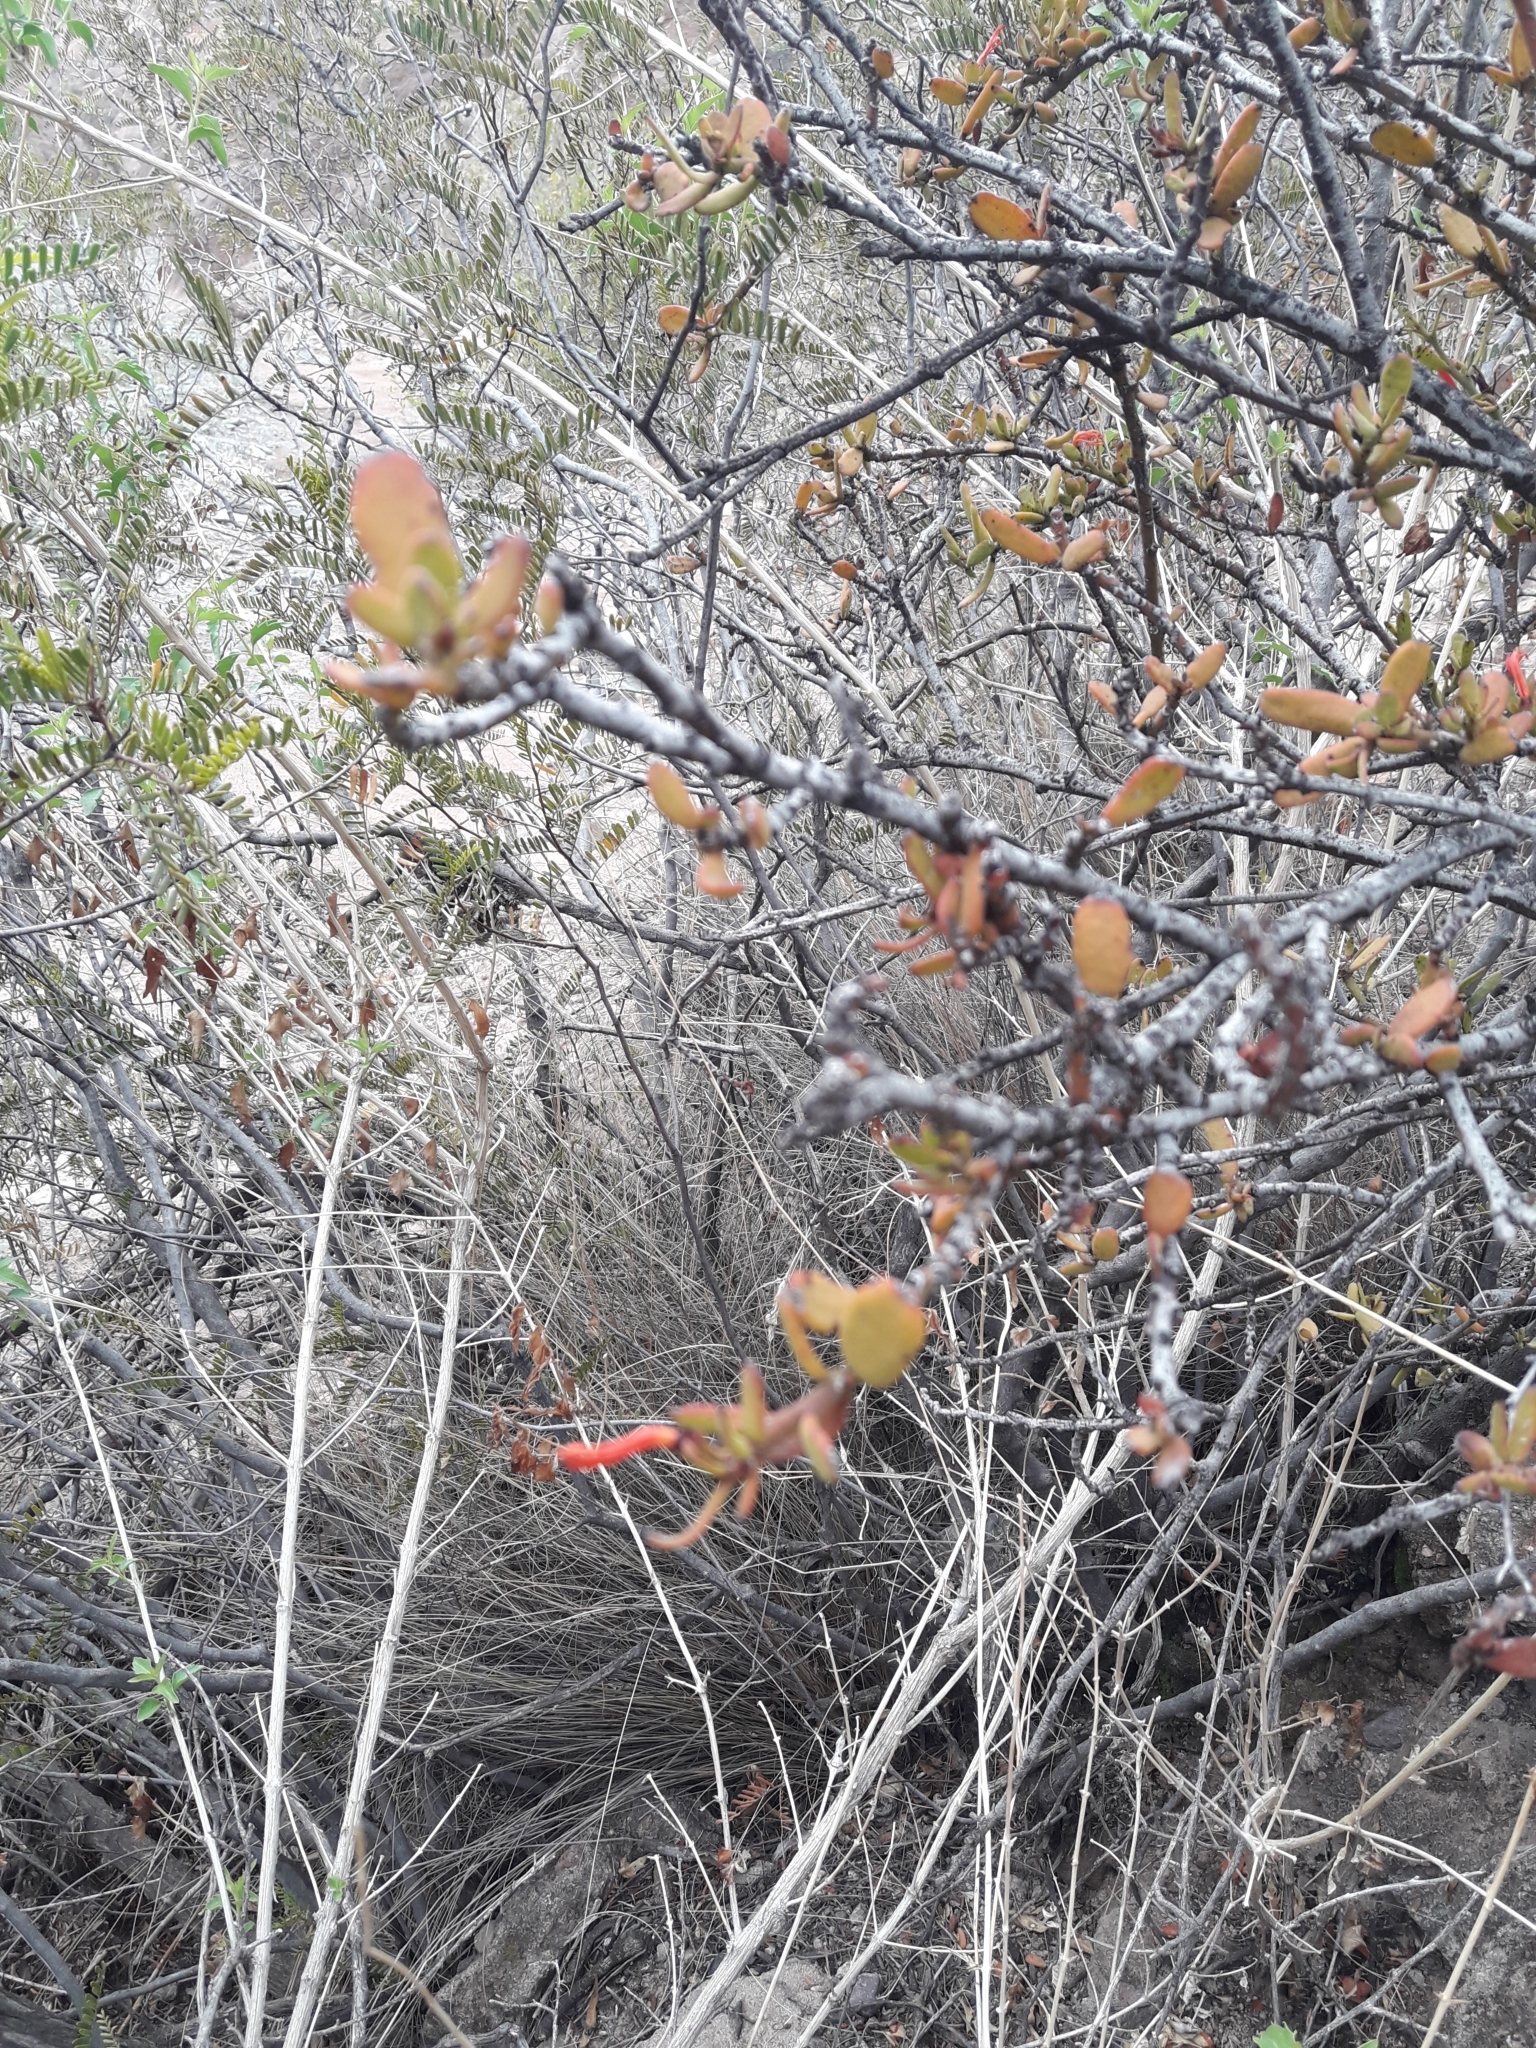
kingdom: Plantae
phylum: Tracheophyta
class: Magnoliopsida
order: Santalales
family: Loranthaceae
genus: Ligaria
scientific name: Ligaria cuneifolia
